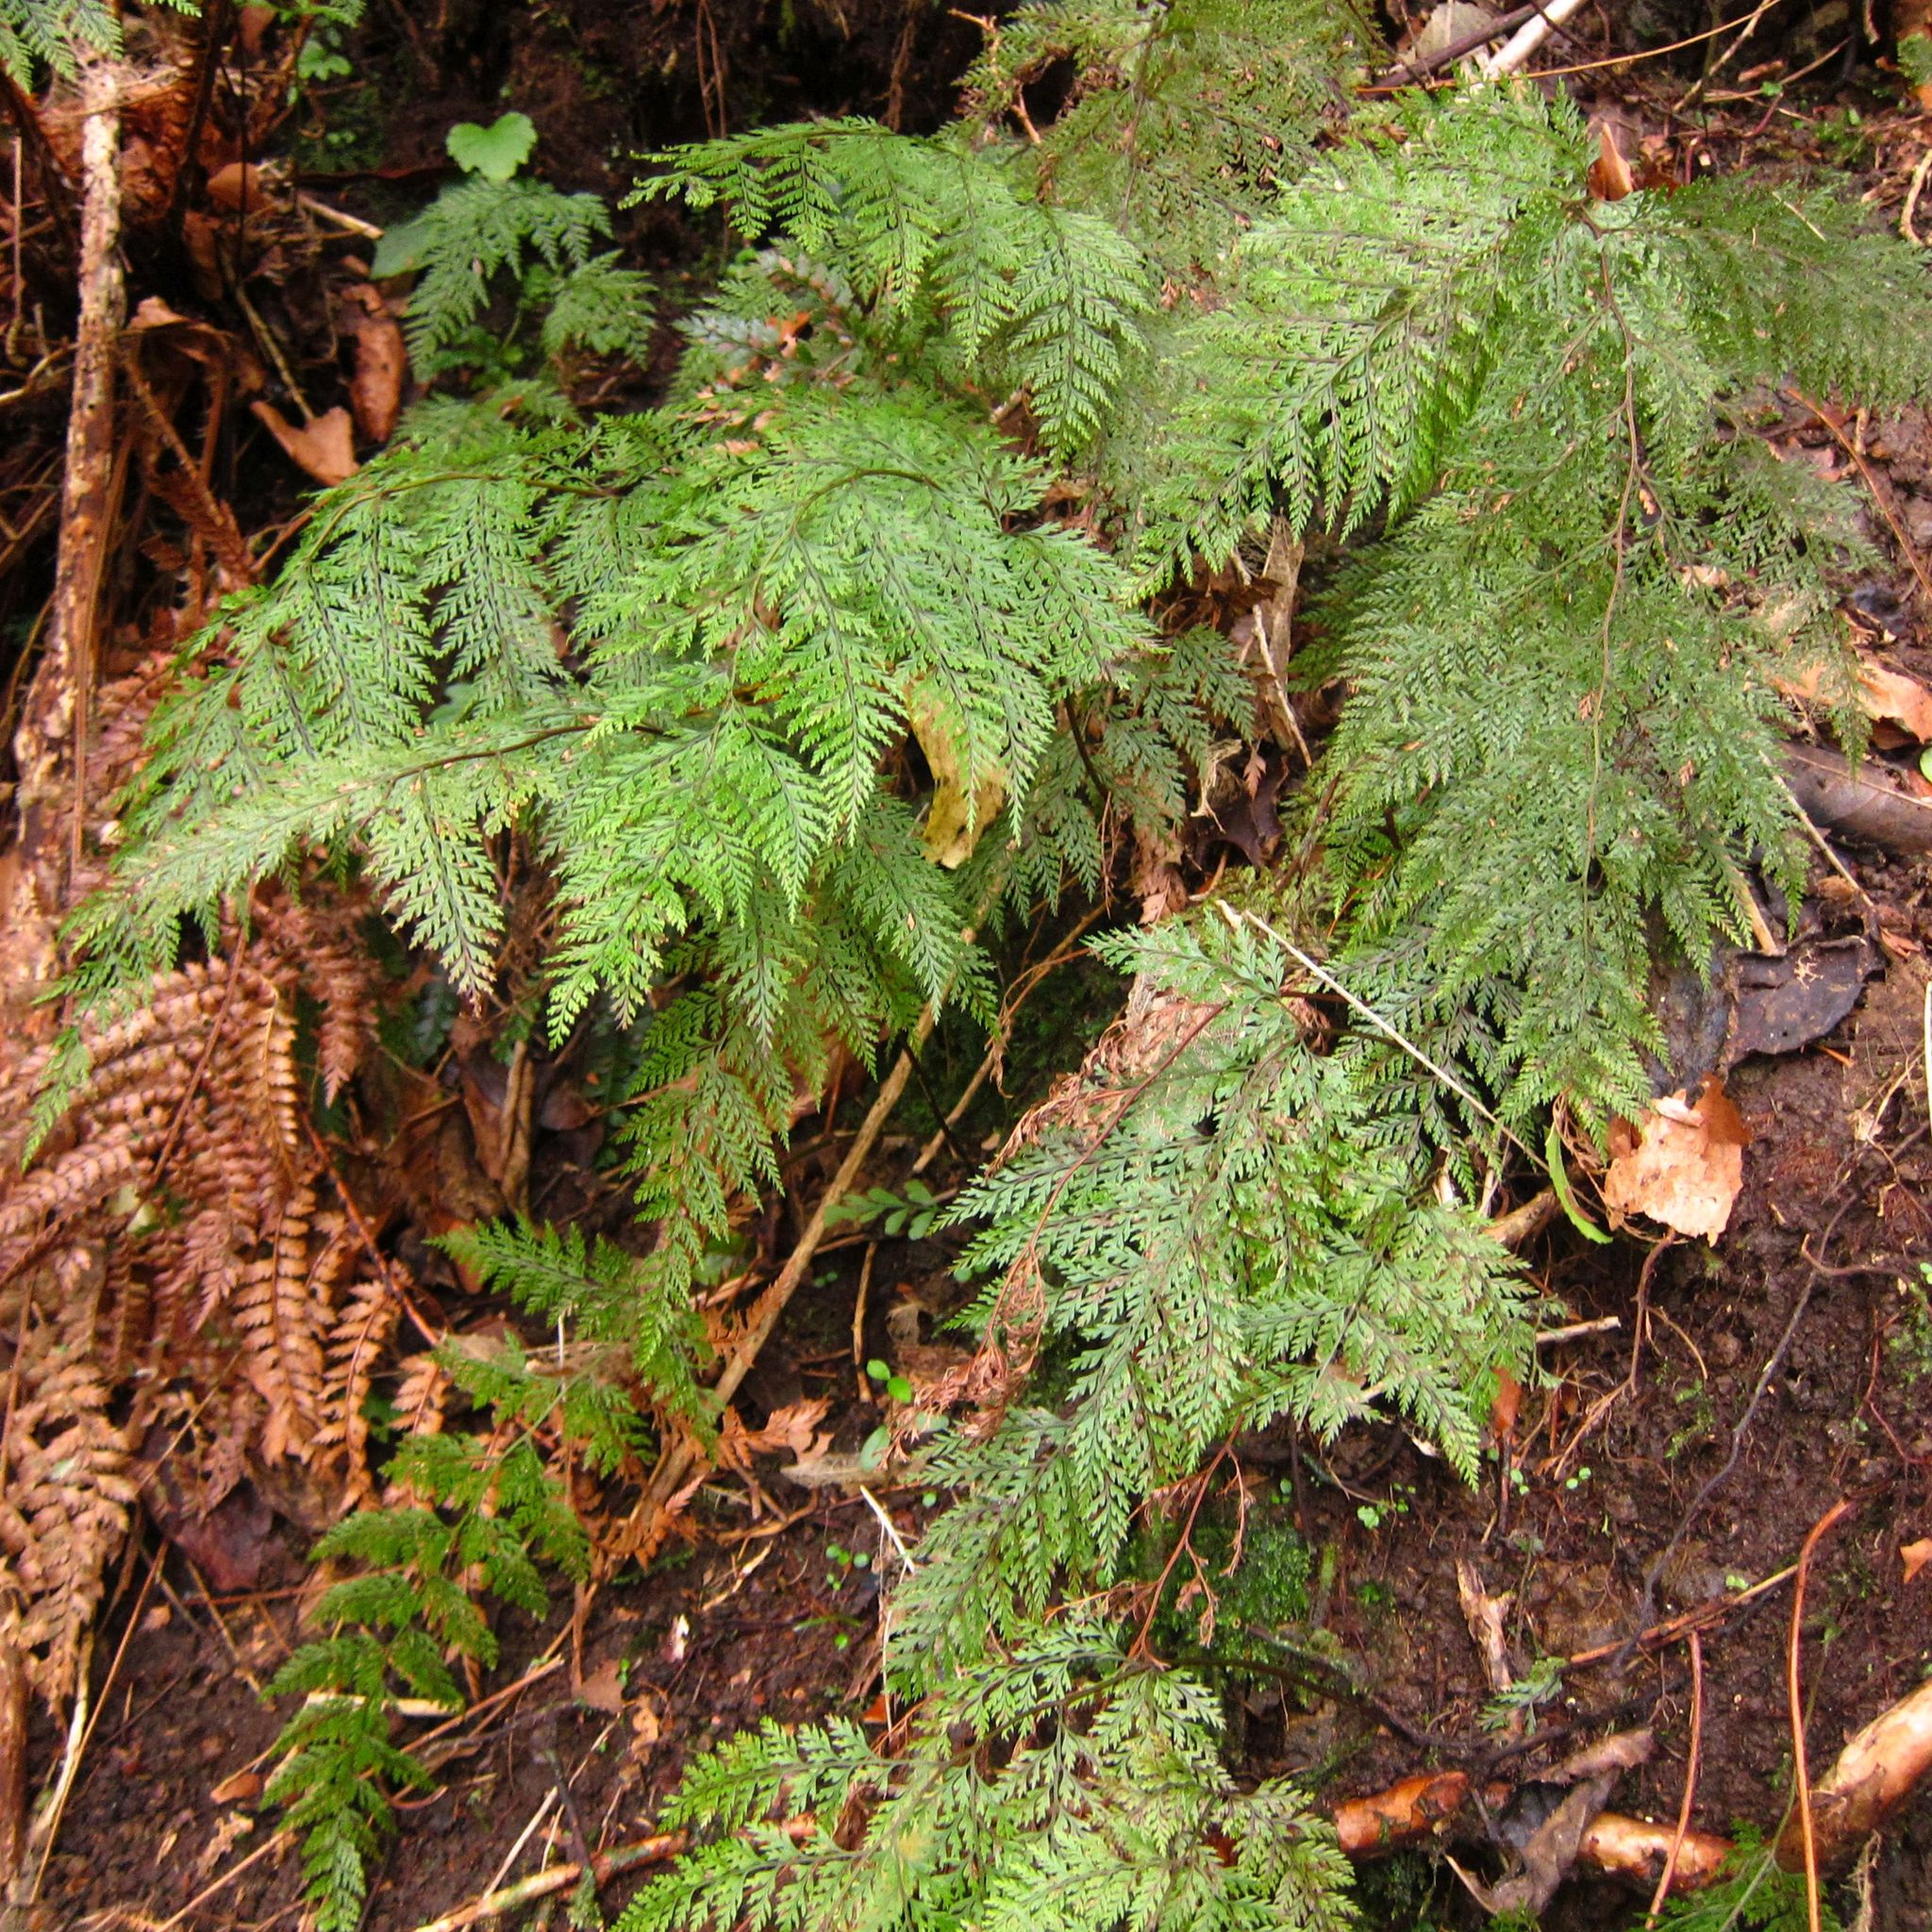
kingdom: Plantae
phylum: Tracheophyta
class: Polypodiopsida
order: Polypodiales
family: Dennstaedtiaceae
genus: Dennstaedtia
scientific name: Dennstaedtia novae-zelandiae
